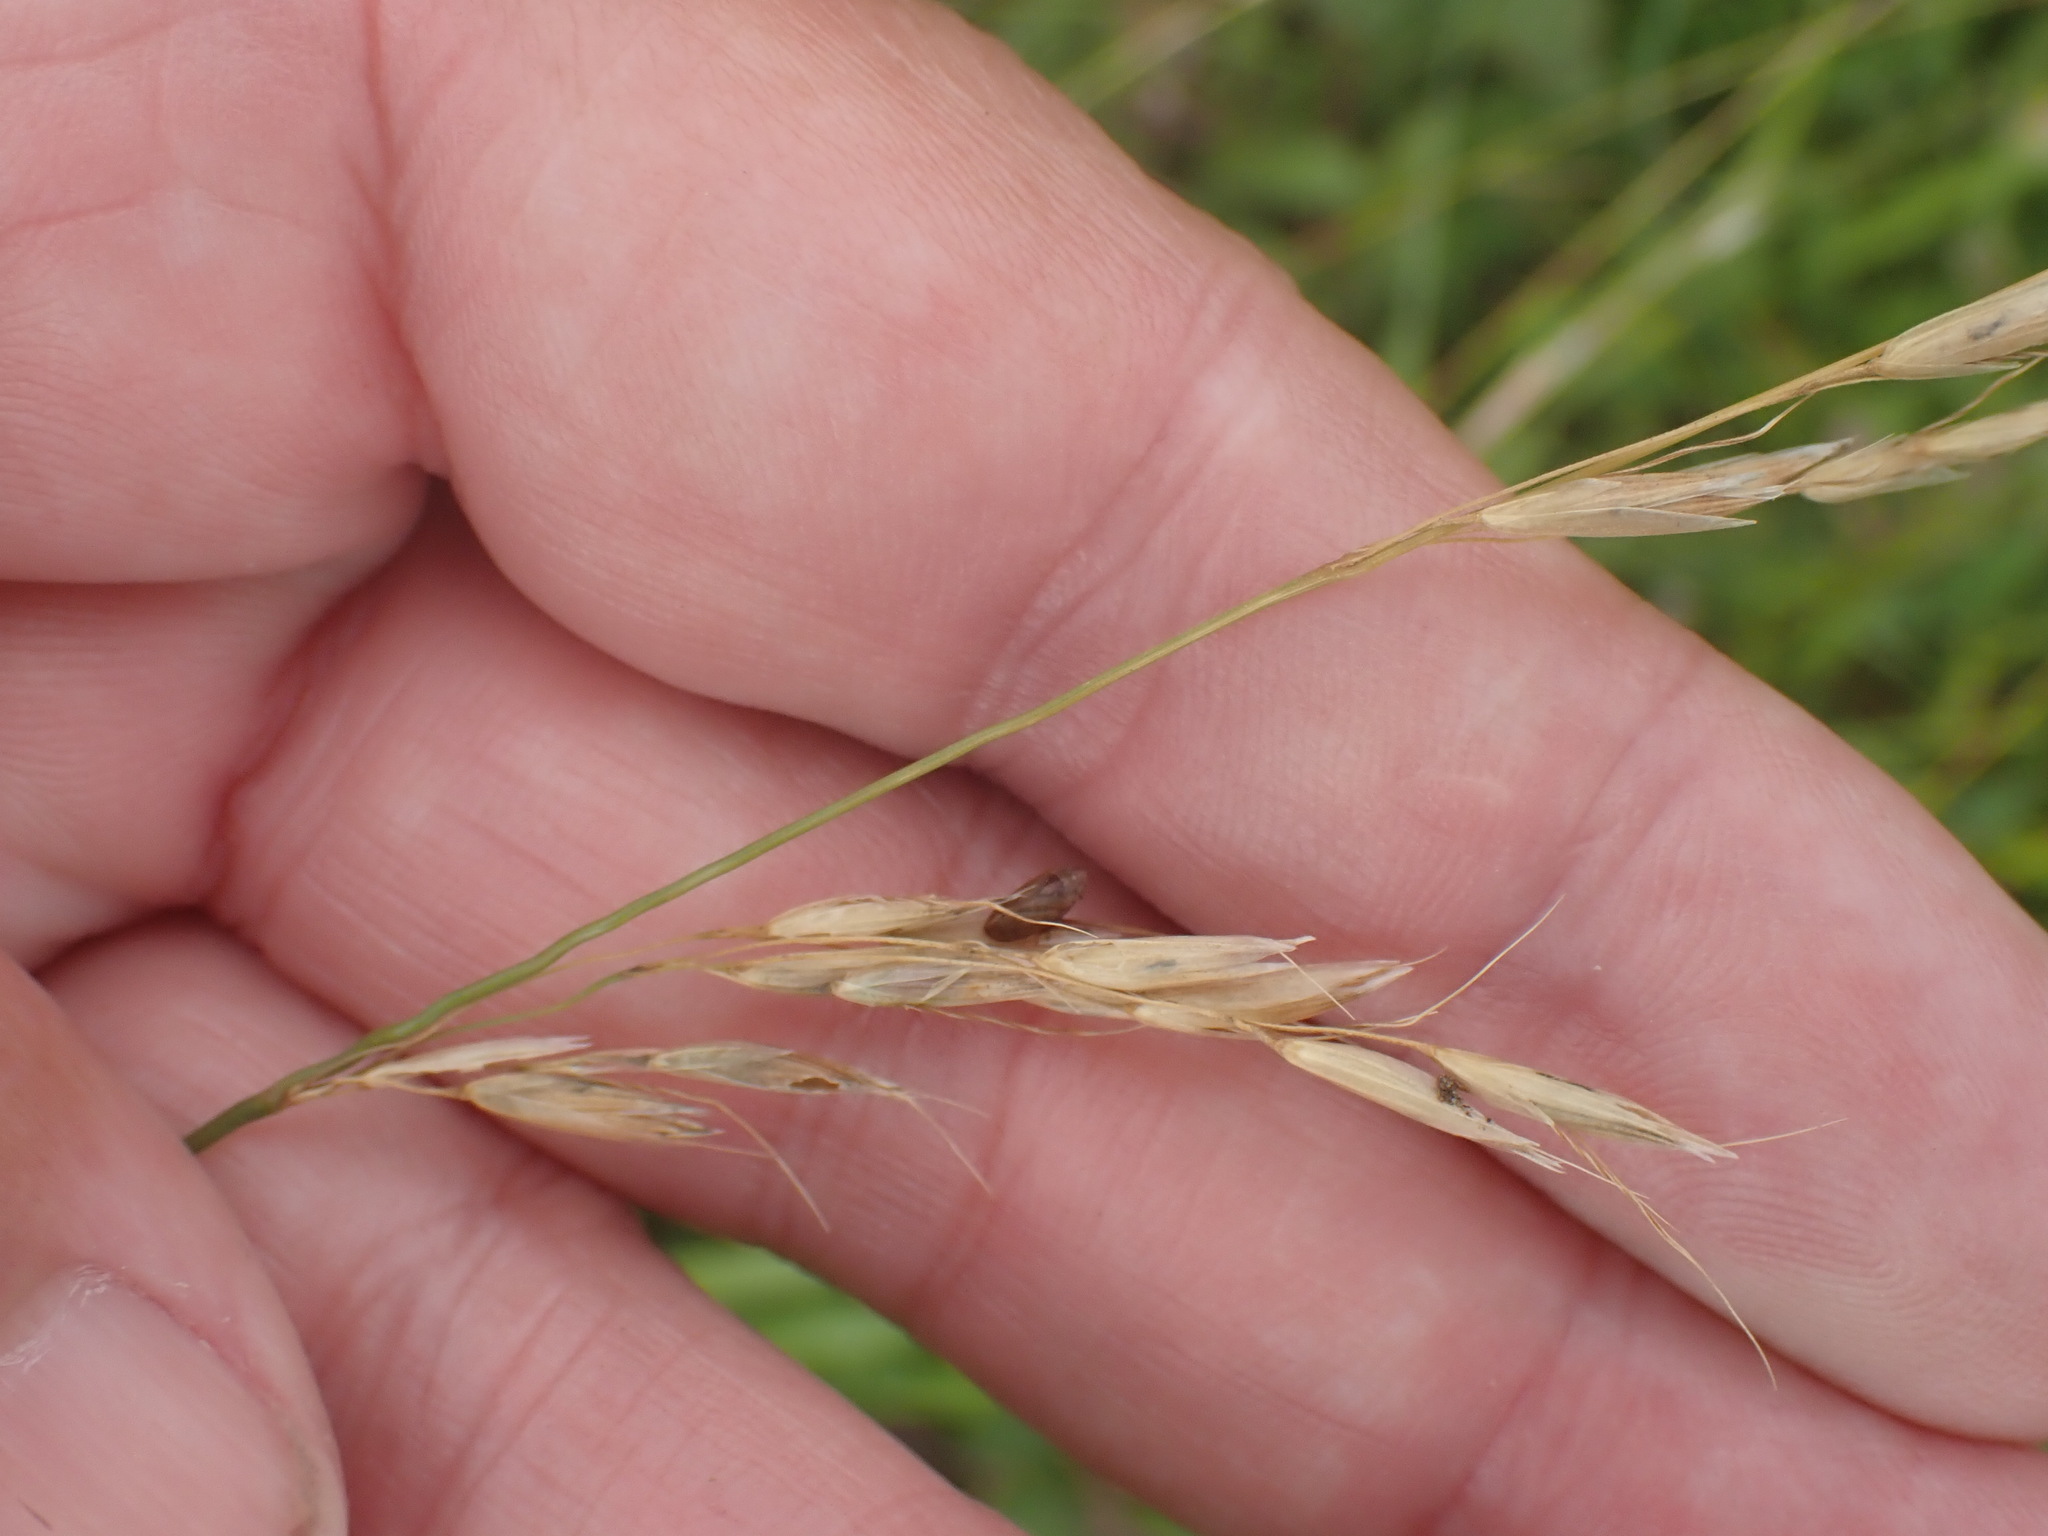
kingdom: Plantae
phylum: Tracheophyta
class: Liliopsida
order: Poales
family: Poaceae
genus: Arrhenatherum
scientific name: Arrhenatherum elatius
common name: Tall oatgrass
